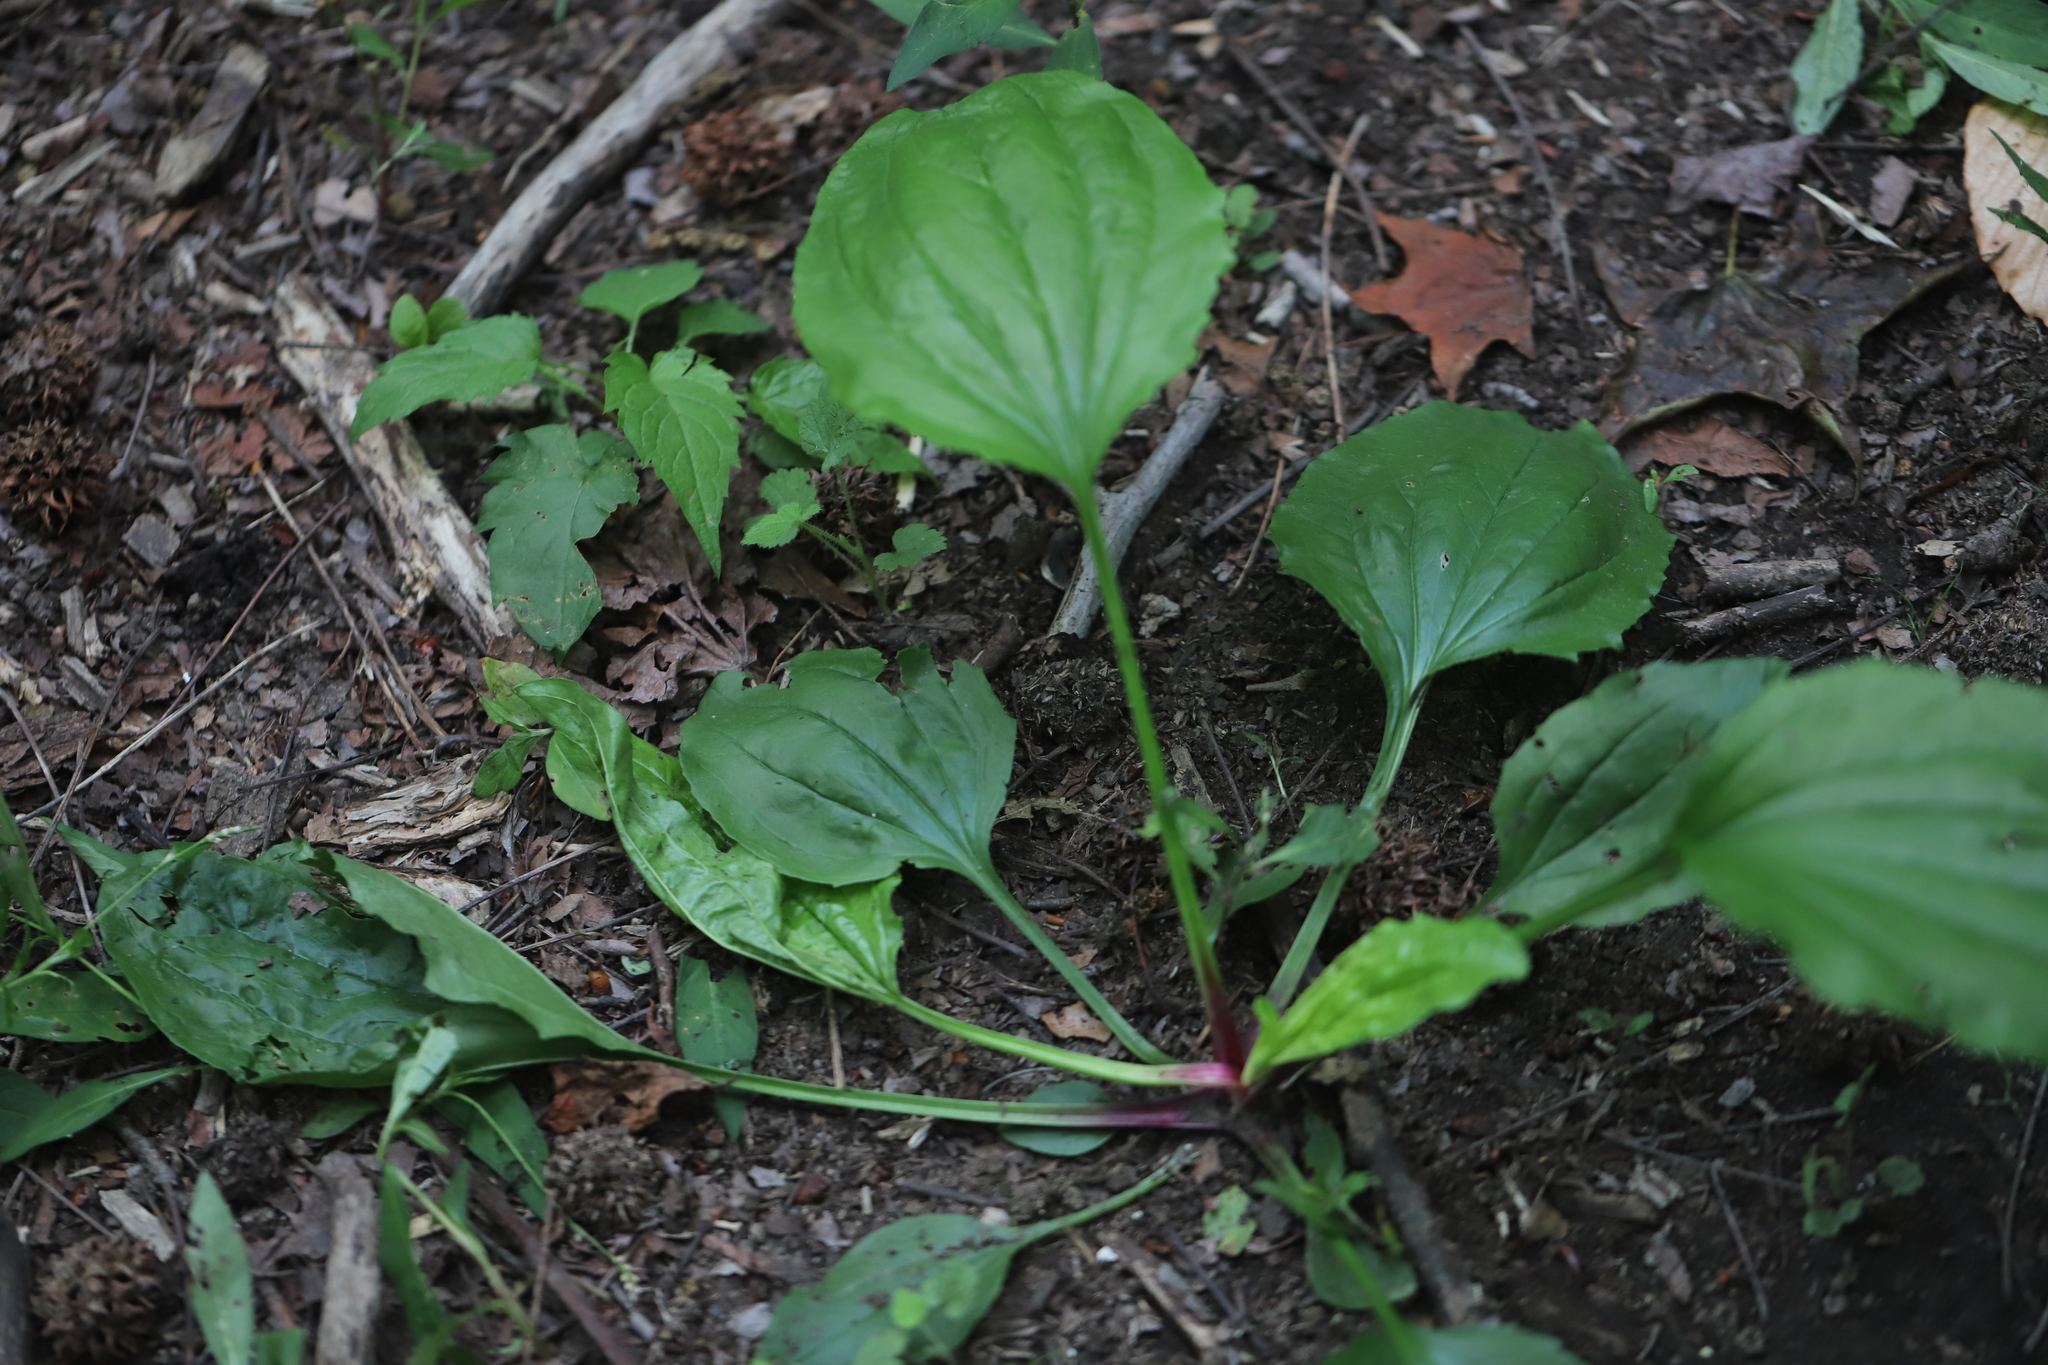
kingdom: Plantae
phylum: Tracheophyta
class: Magnoliopsida
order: Lamiales
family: Plantaginaceae
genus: Plantago
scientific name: Plantago rugelii
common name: American plantain
